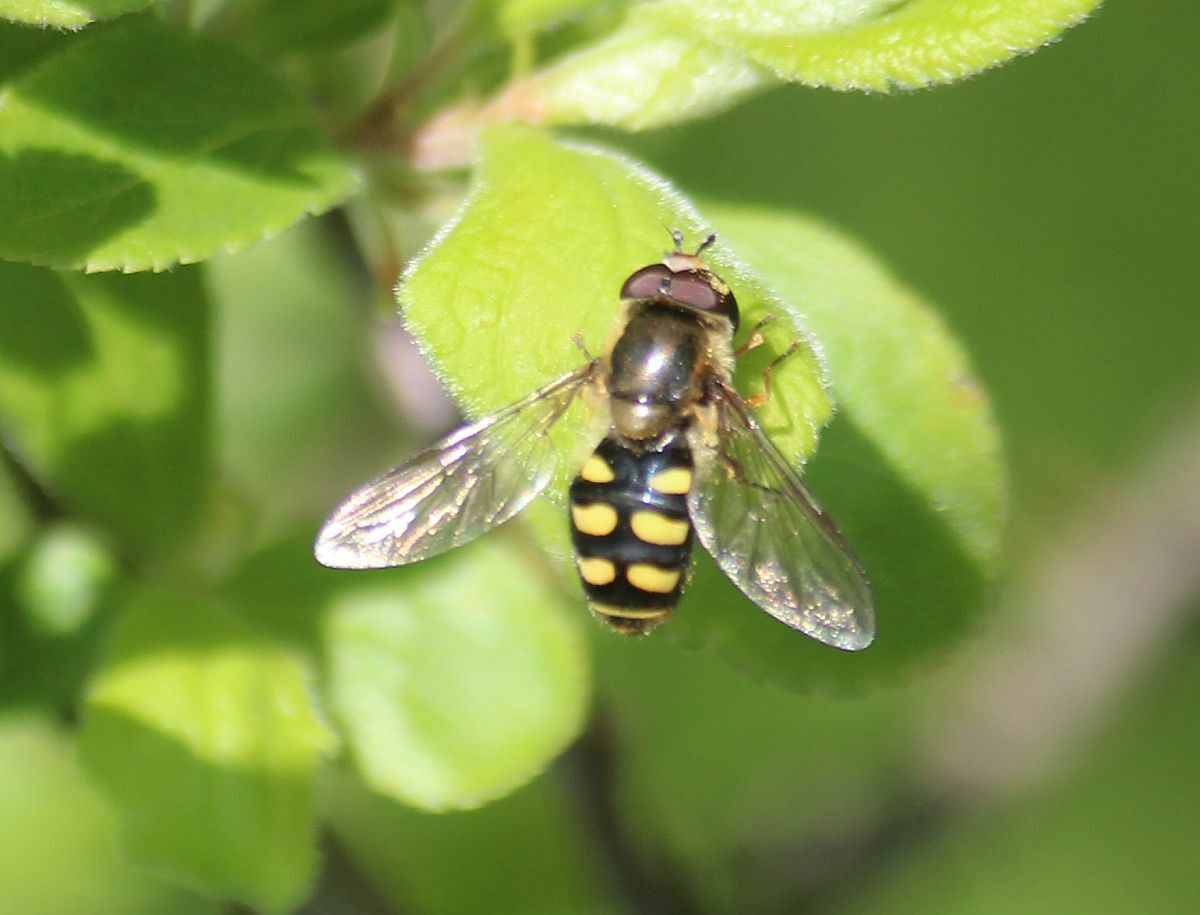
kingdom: Animalia
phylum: Arthropoda
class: Insecta
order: Diptera
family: Syrphidae
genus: Eupeodes
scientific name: Eupeodes
